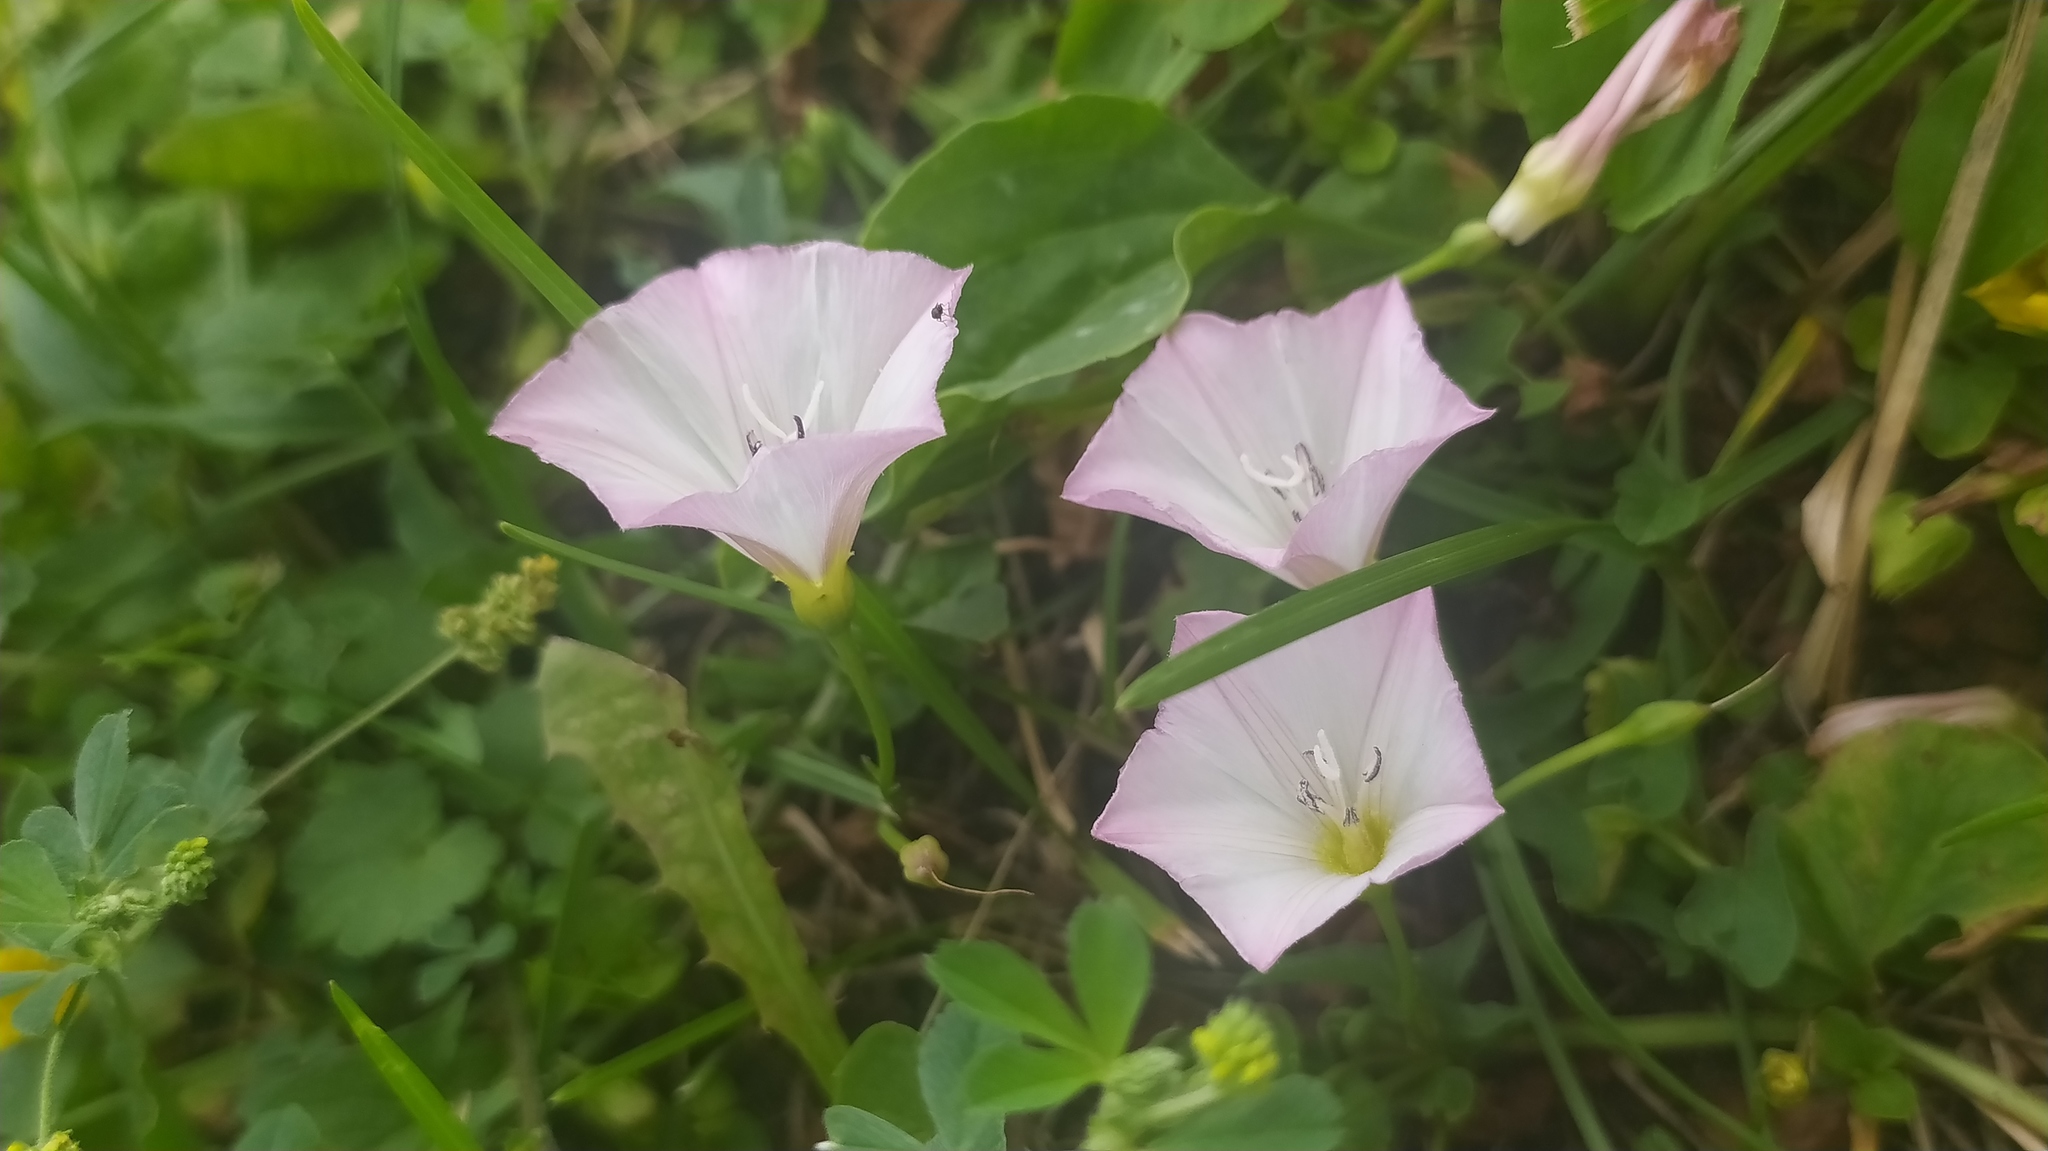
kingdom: Plantae
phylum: Tracheophyta
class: Magnoliopsida
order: Solanales
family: Convolvulaceae
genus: Convolvulus
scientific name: Convolvulus arvensis
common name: Field bindweed
